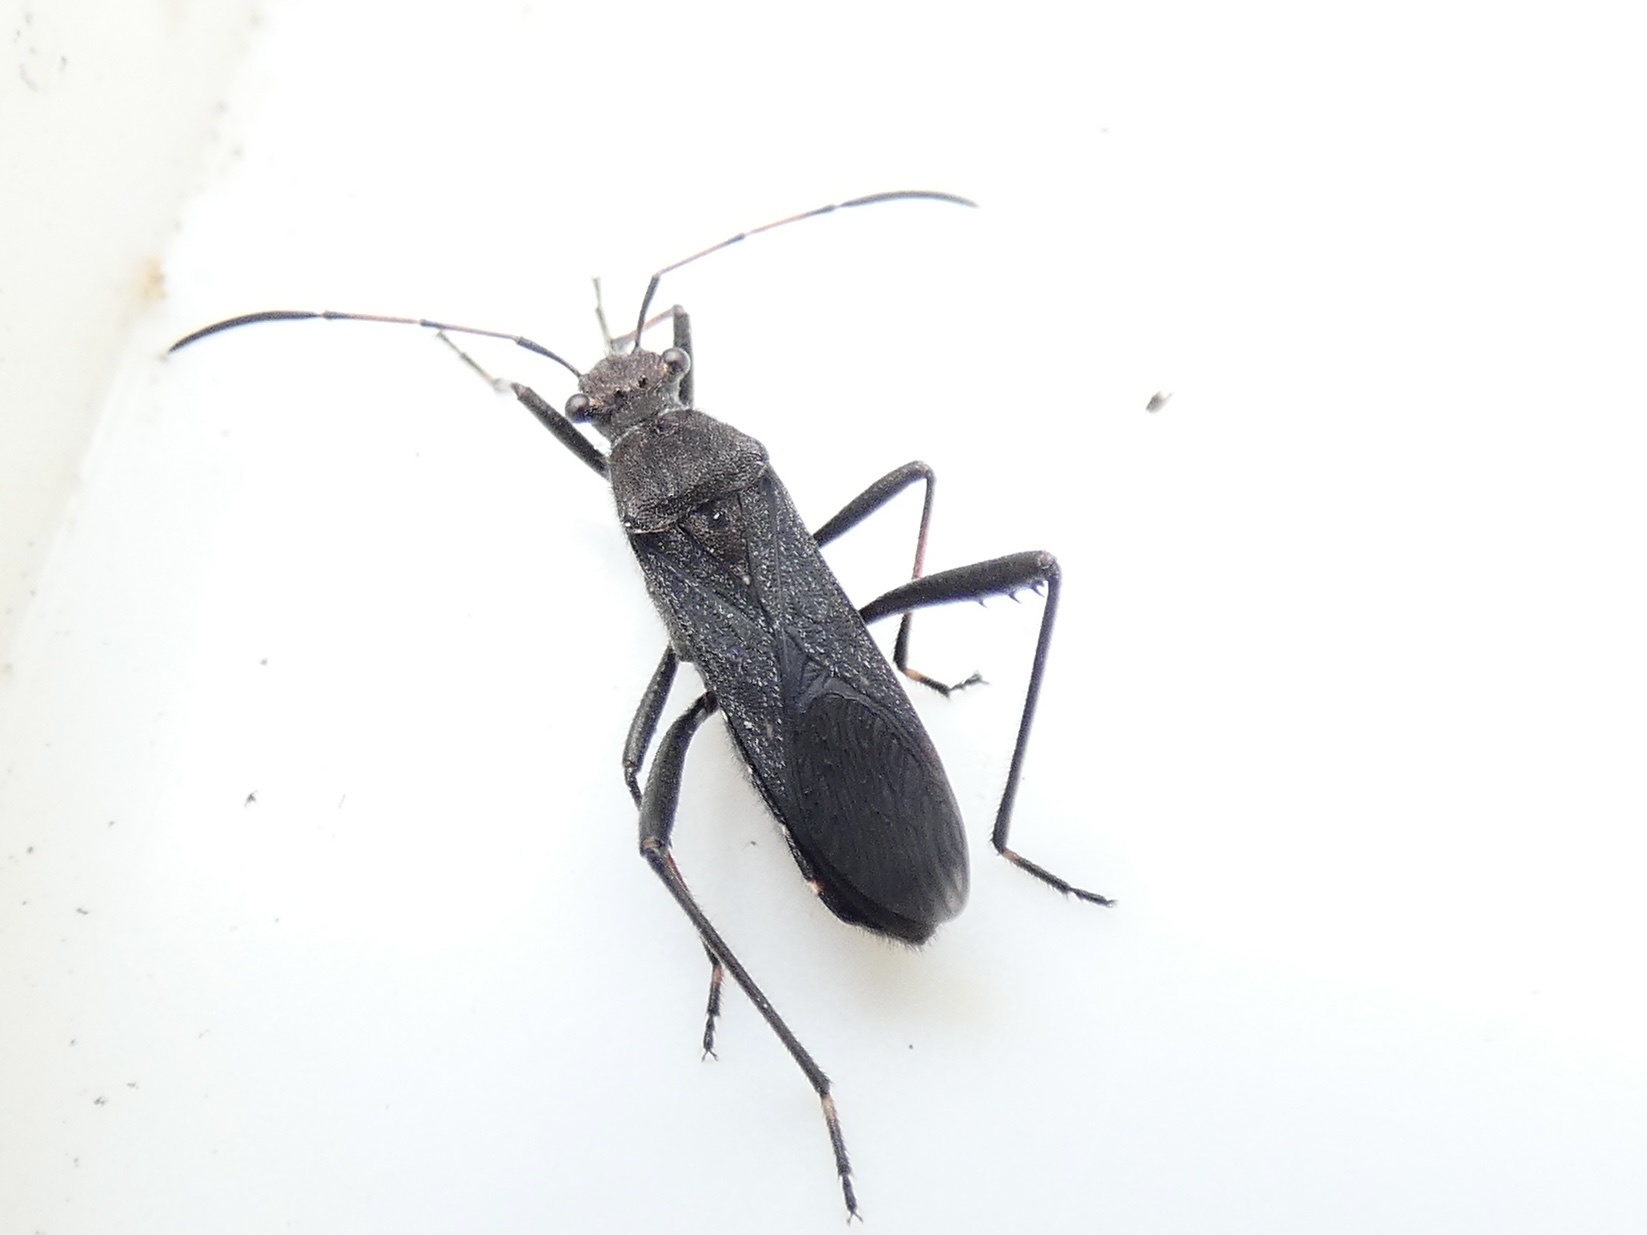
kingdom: Animalia
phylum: Arthropoda
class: Insecta
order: Hemiptera
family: Alydidae
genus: Alydus
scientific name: Alydus calcaratus
